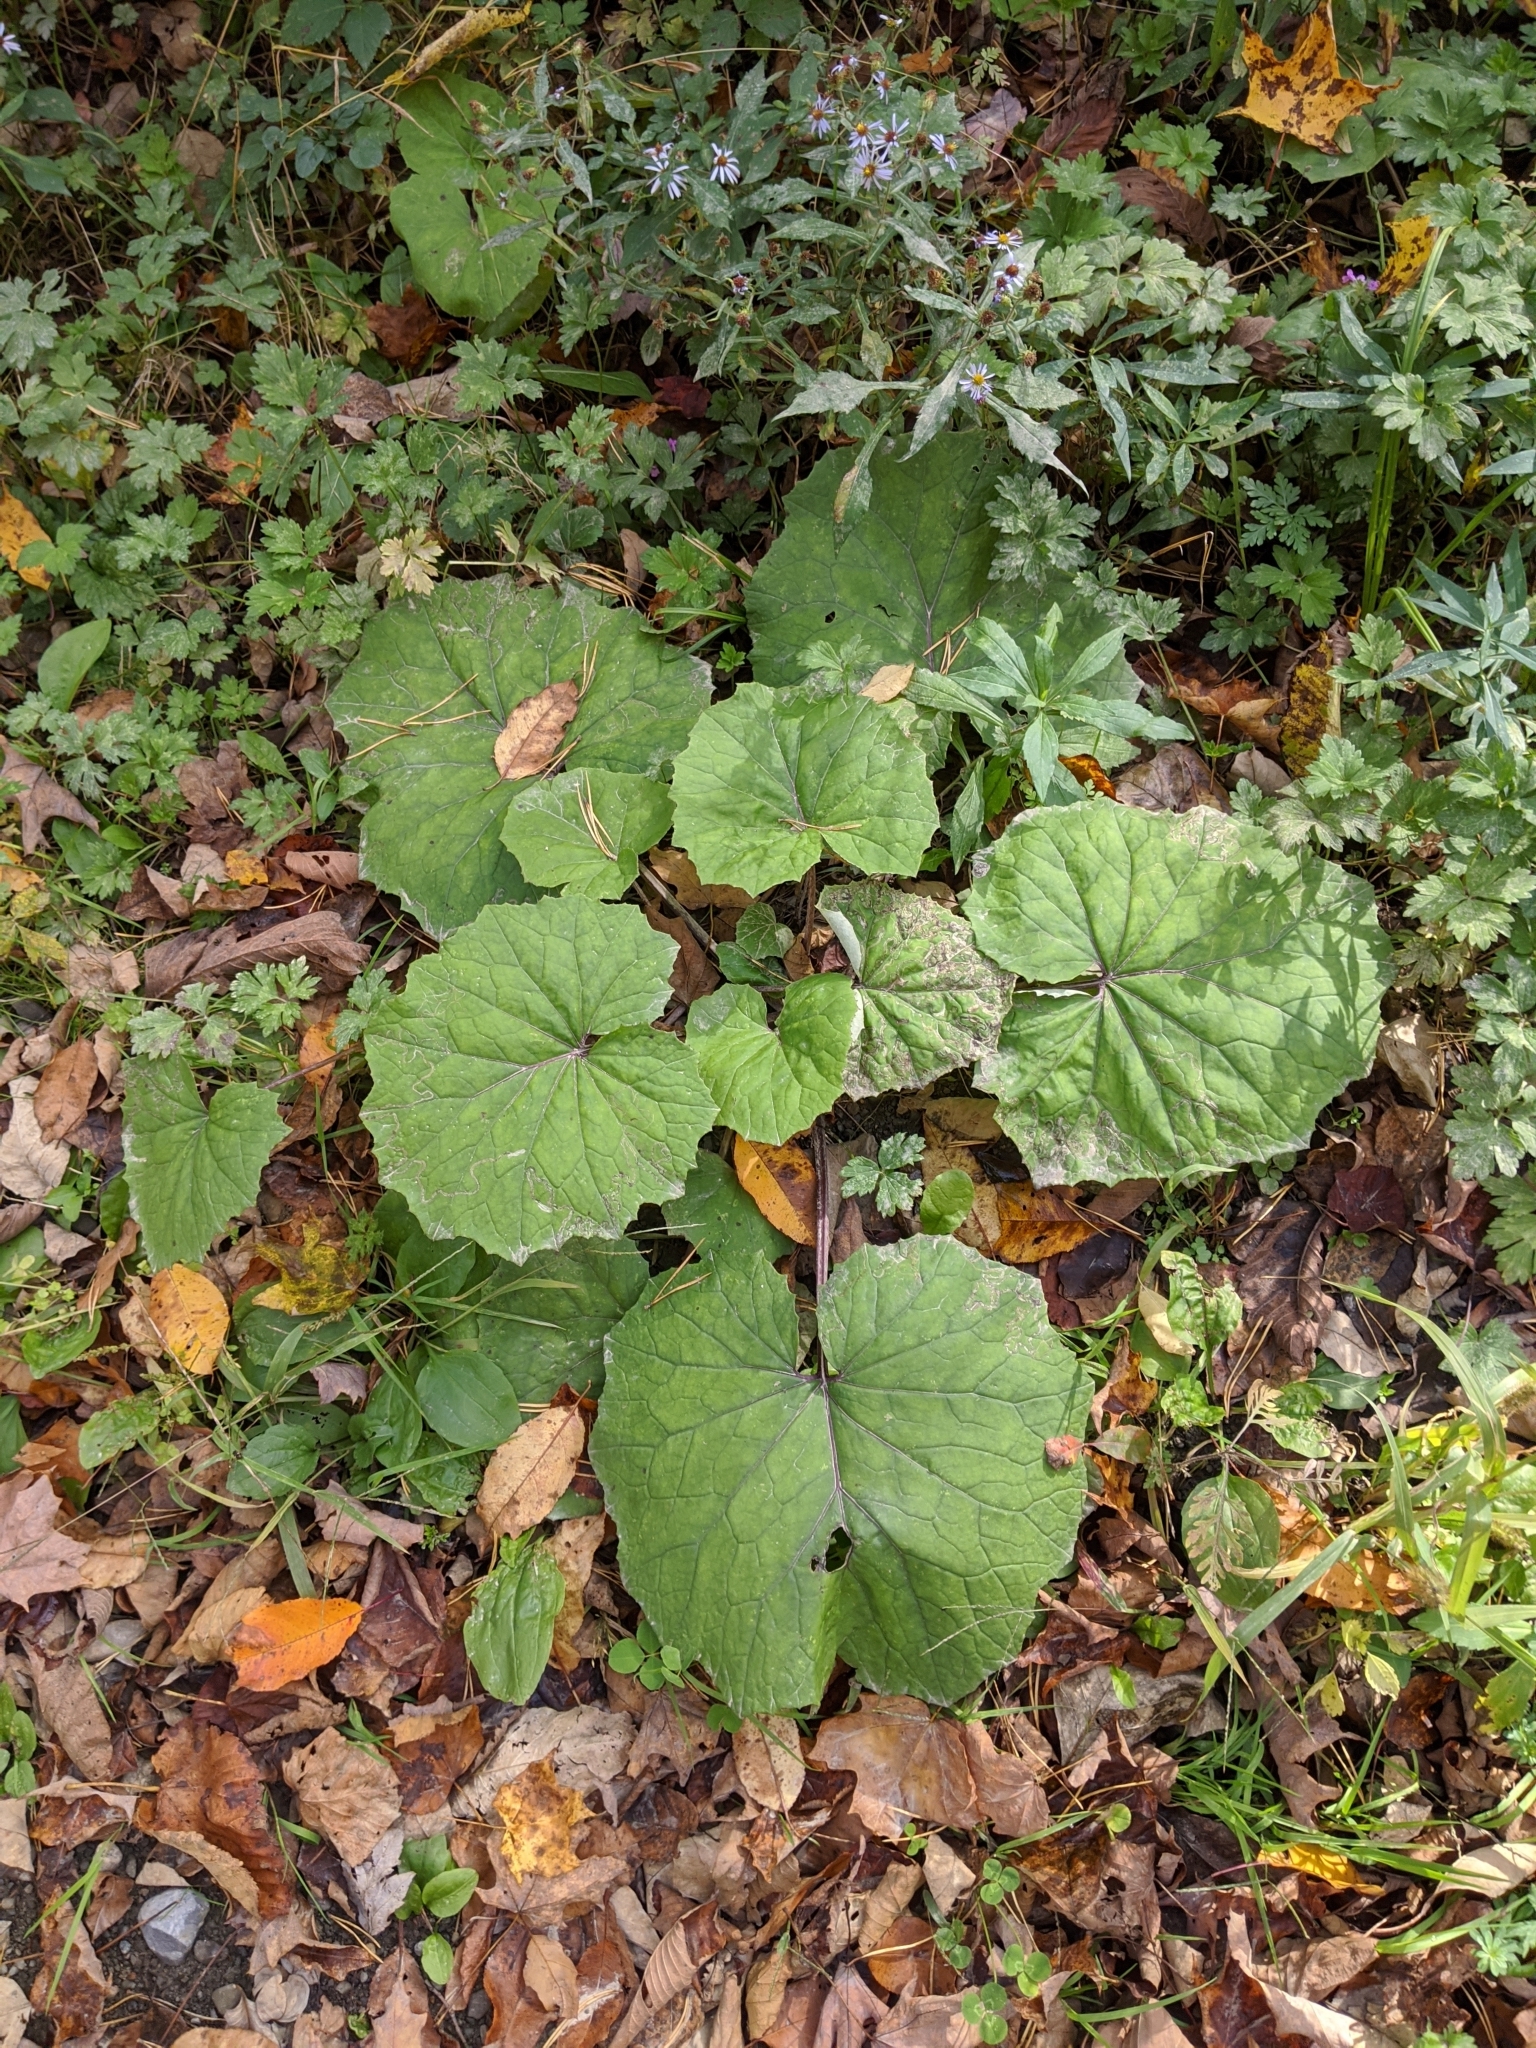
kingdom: Plantae
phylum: Tracheophyta
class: Magnoliopsida
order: Asterales
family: Asteraceae
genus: Tussilago
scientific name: Tussilago farfara
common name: Coltsfoot
